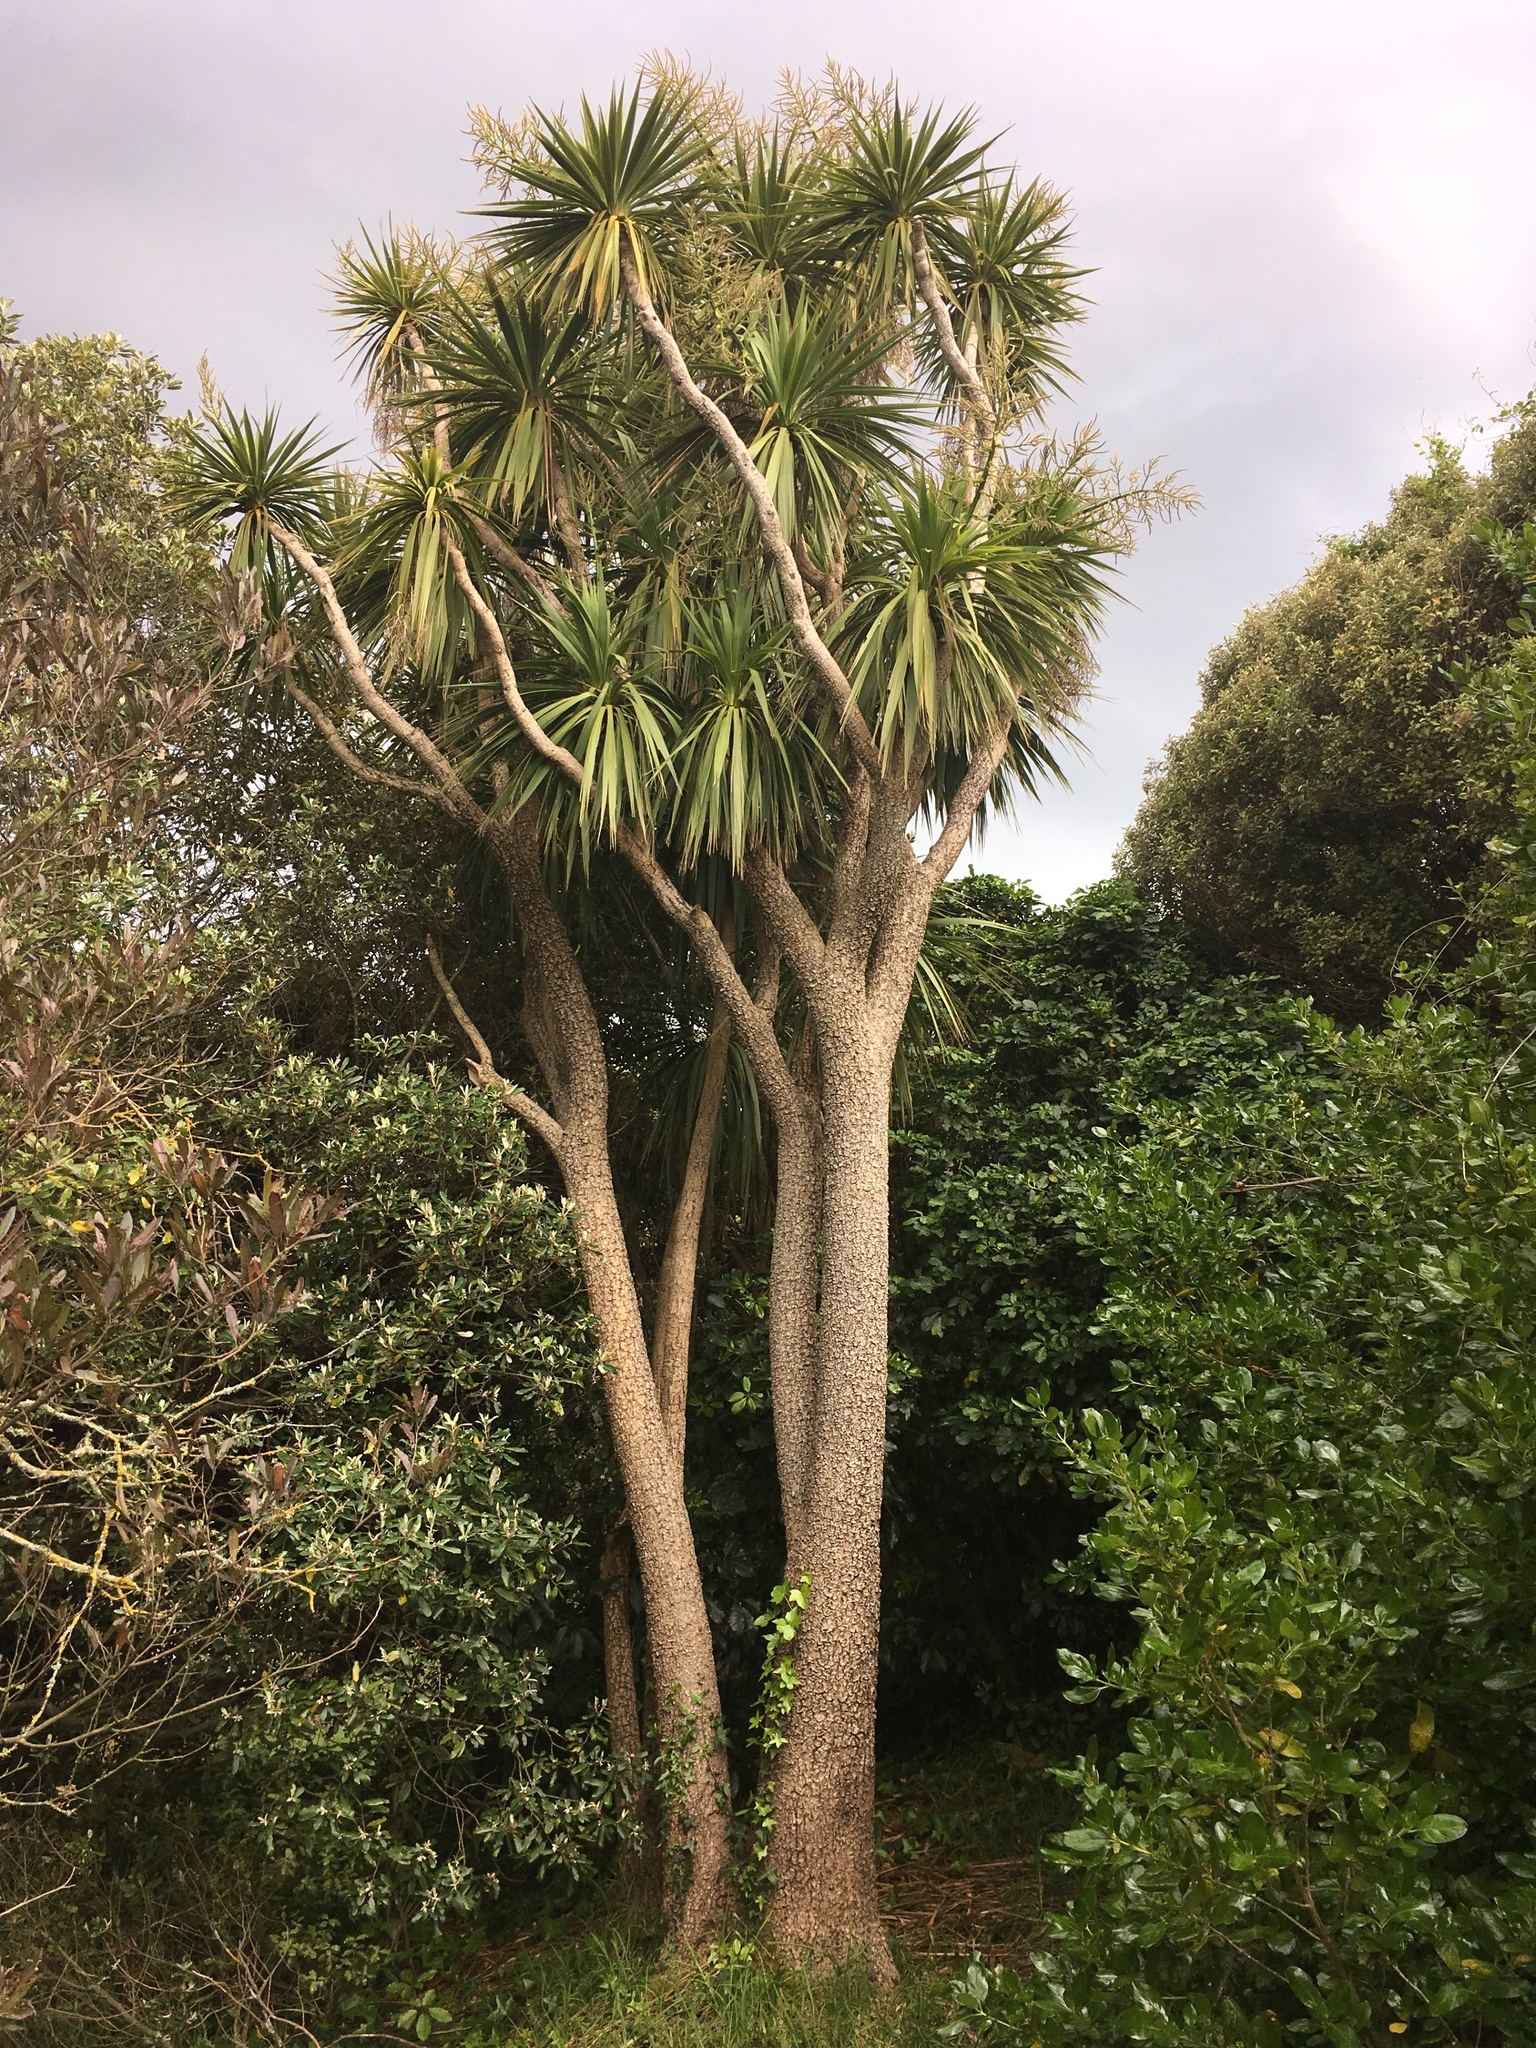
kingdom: Plantae
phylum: Tracheophyta
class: Liliopsida
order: Asparagales
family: Asparagaceae
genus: Cordyline
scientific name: Cordyline australis
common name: Cabbage-palm
